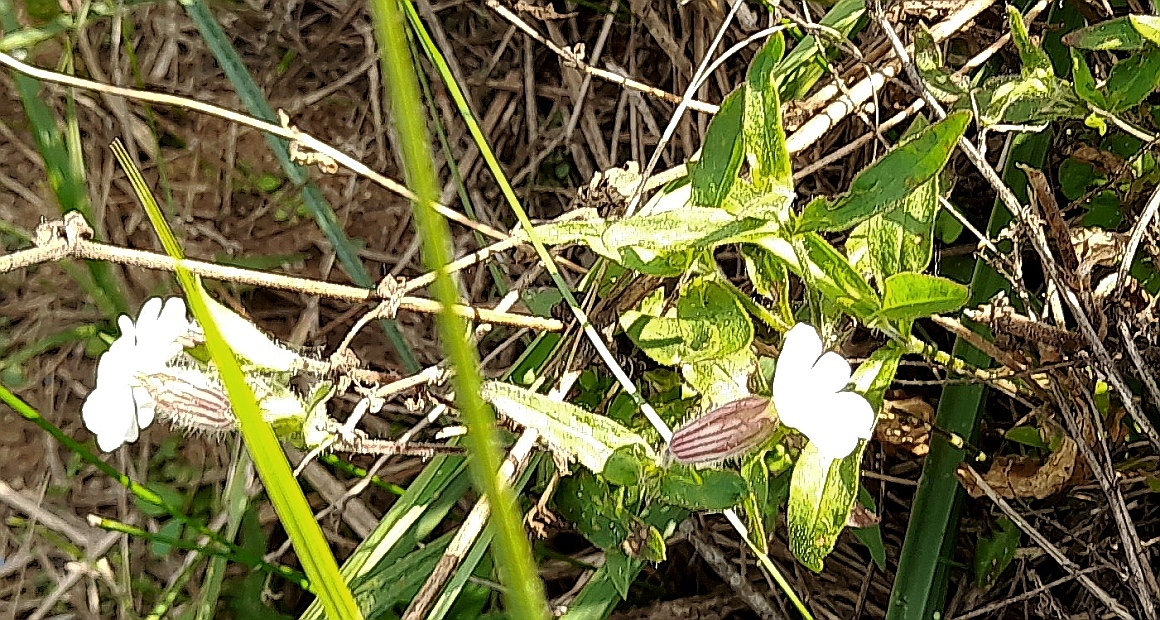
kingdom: Plantae
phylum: Tracheophyta
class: Magnoliopsida
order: Caryophyllales
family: Caryophyllaceae
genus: Silene
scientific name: Silene latifolia
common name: White campion
